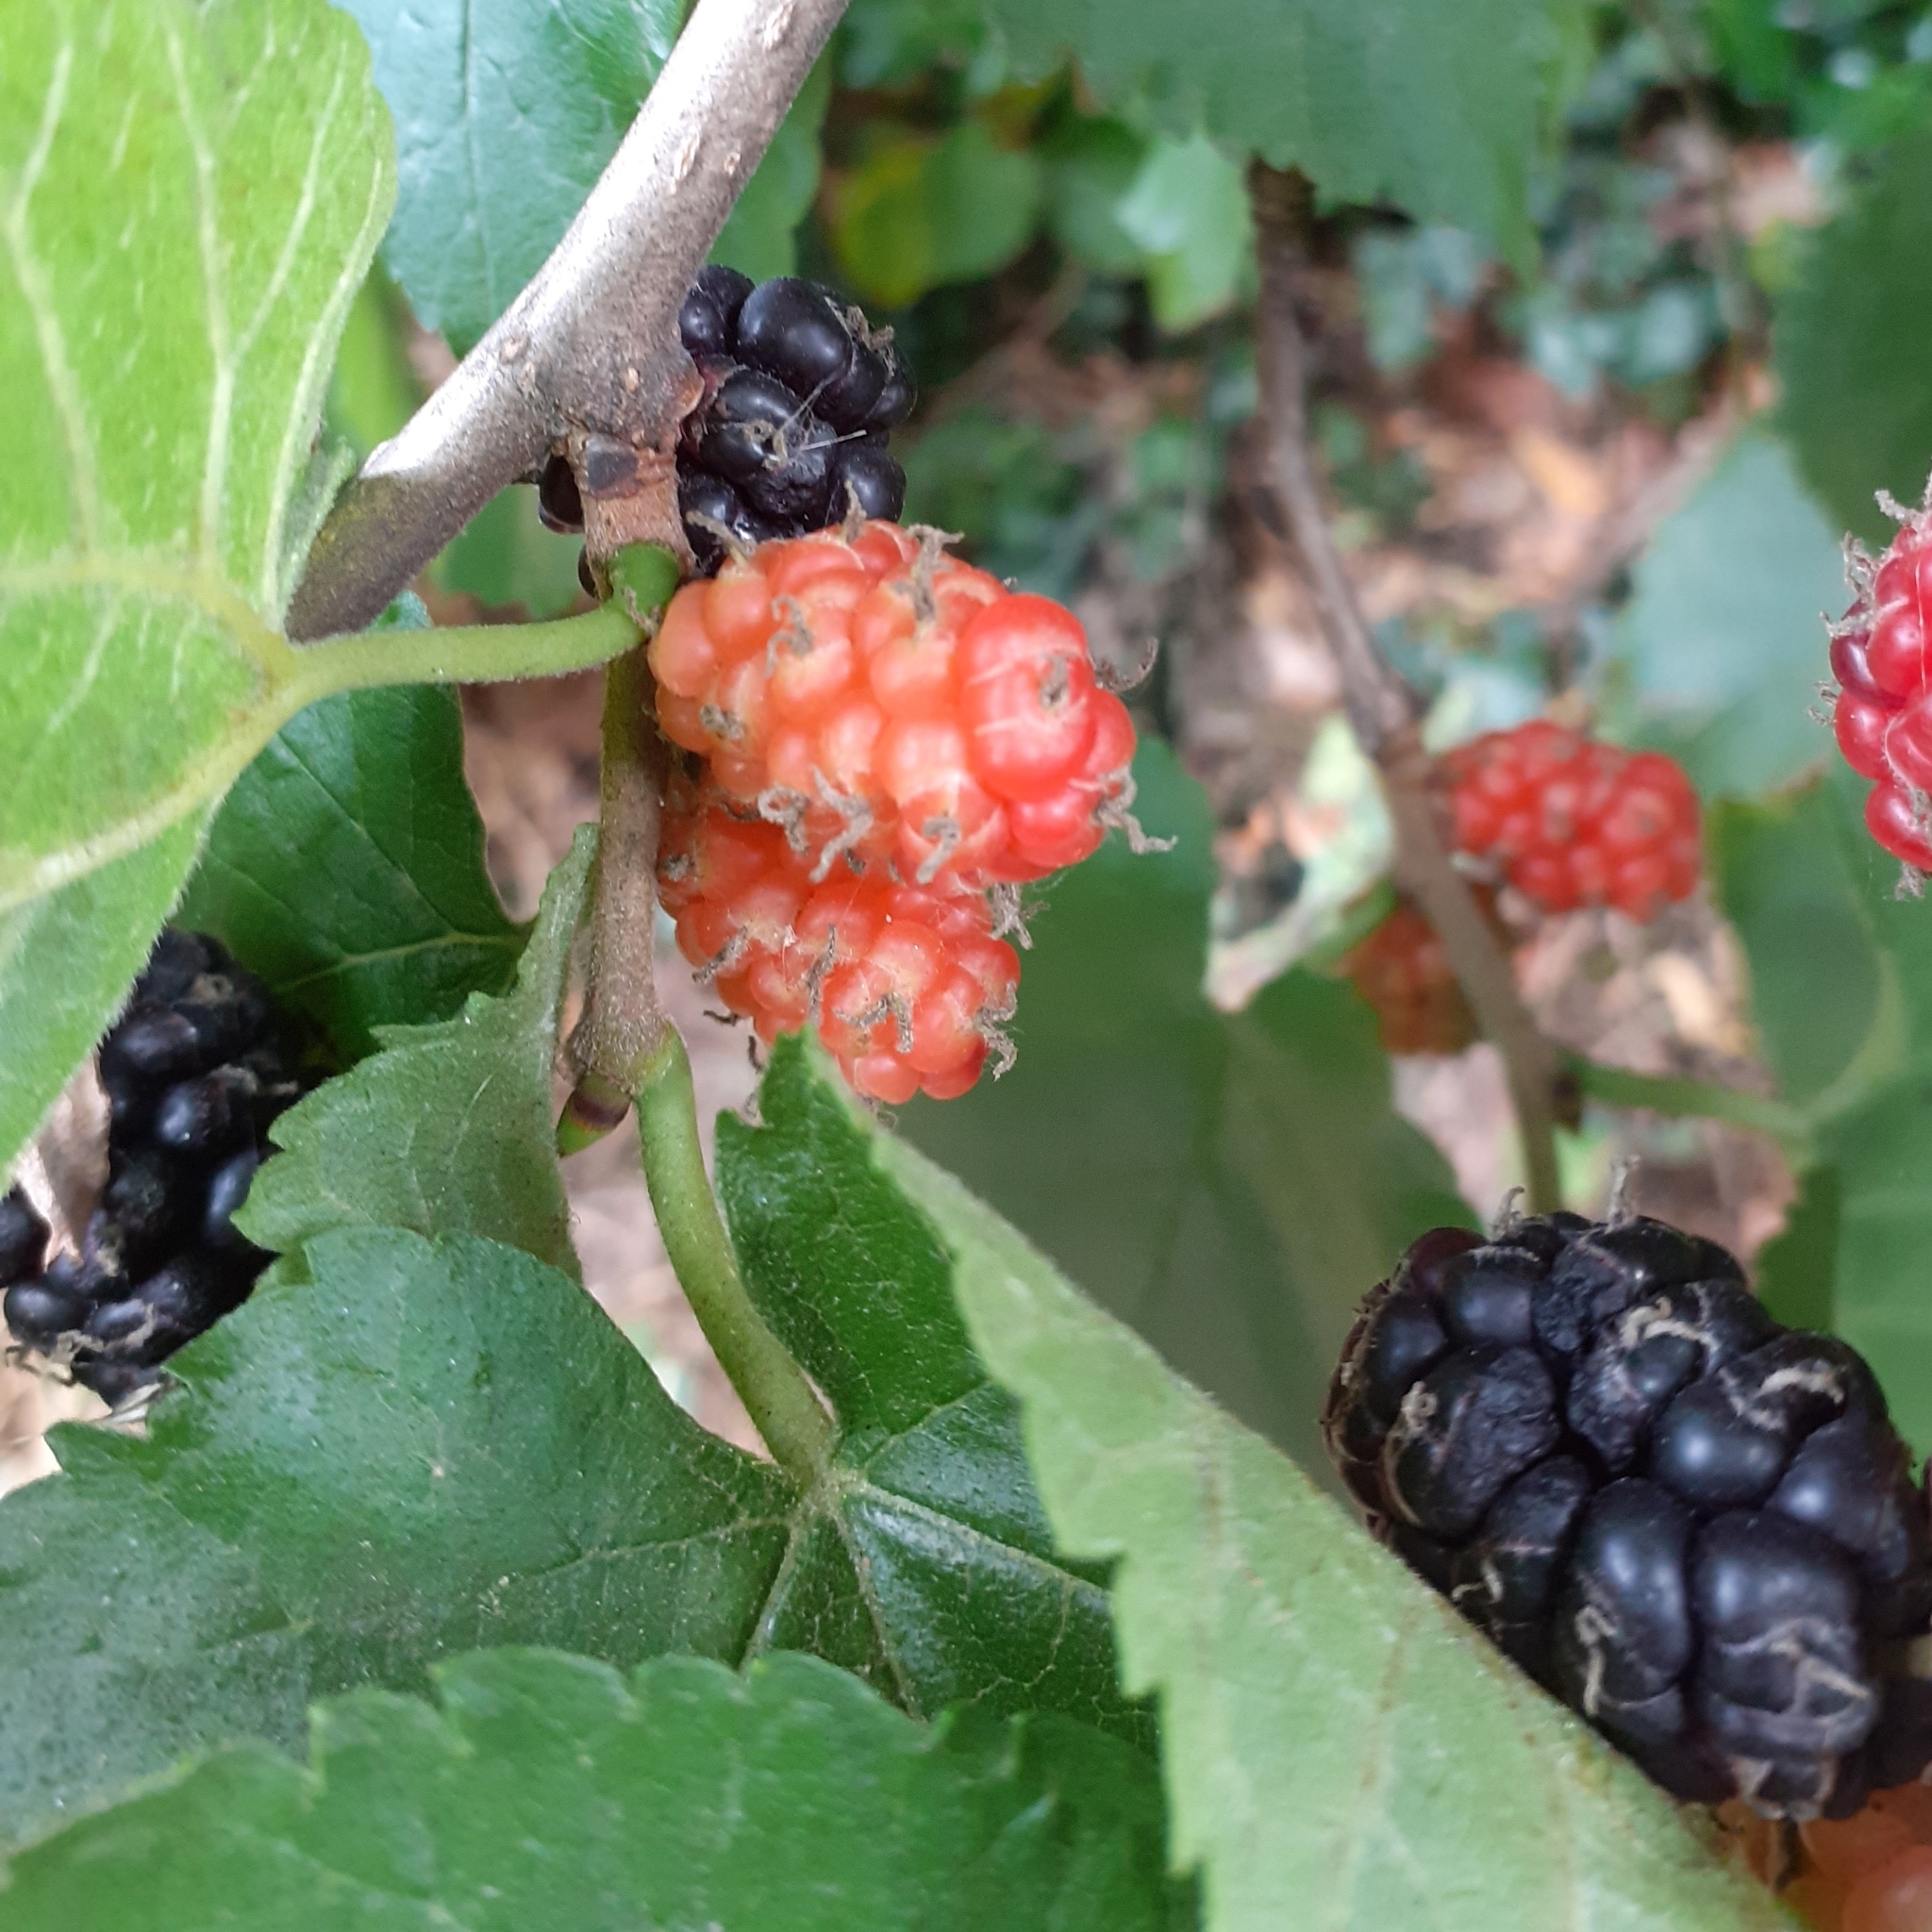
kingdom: Plantae
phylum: Tracheophyta
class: Magnoliopsida
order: Rosales
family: Moraceae
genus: Morus
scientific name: Morus nigra
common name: Black mulberry
